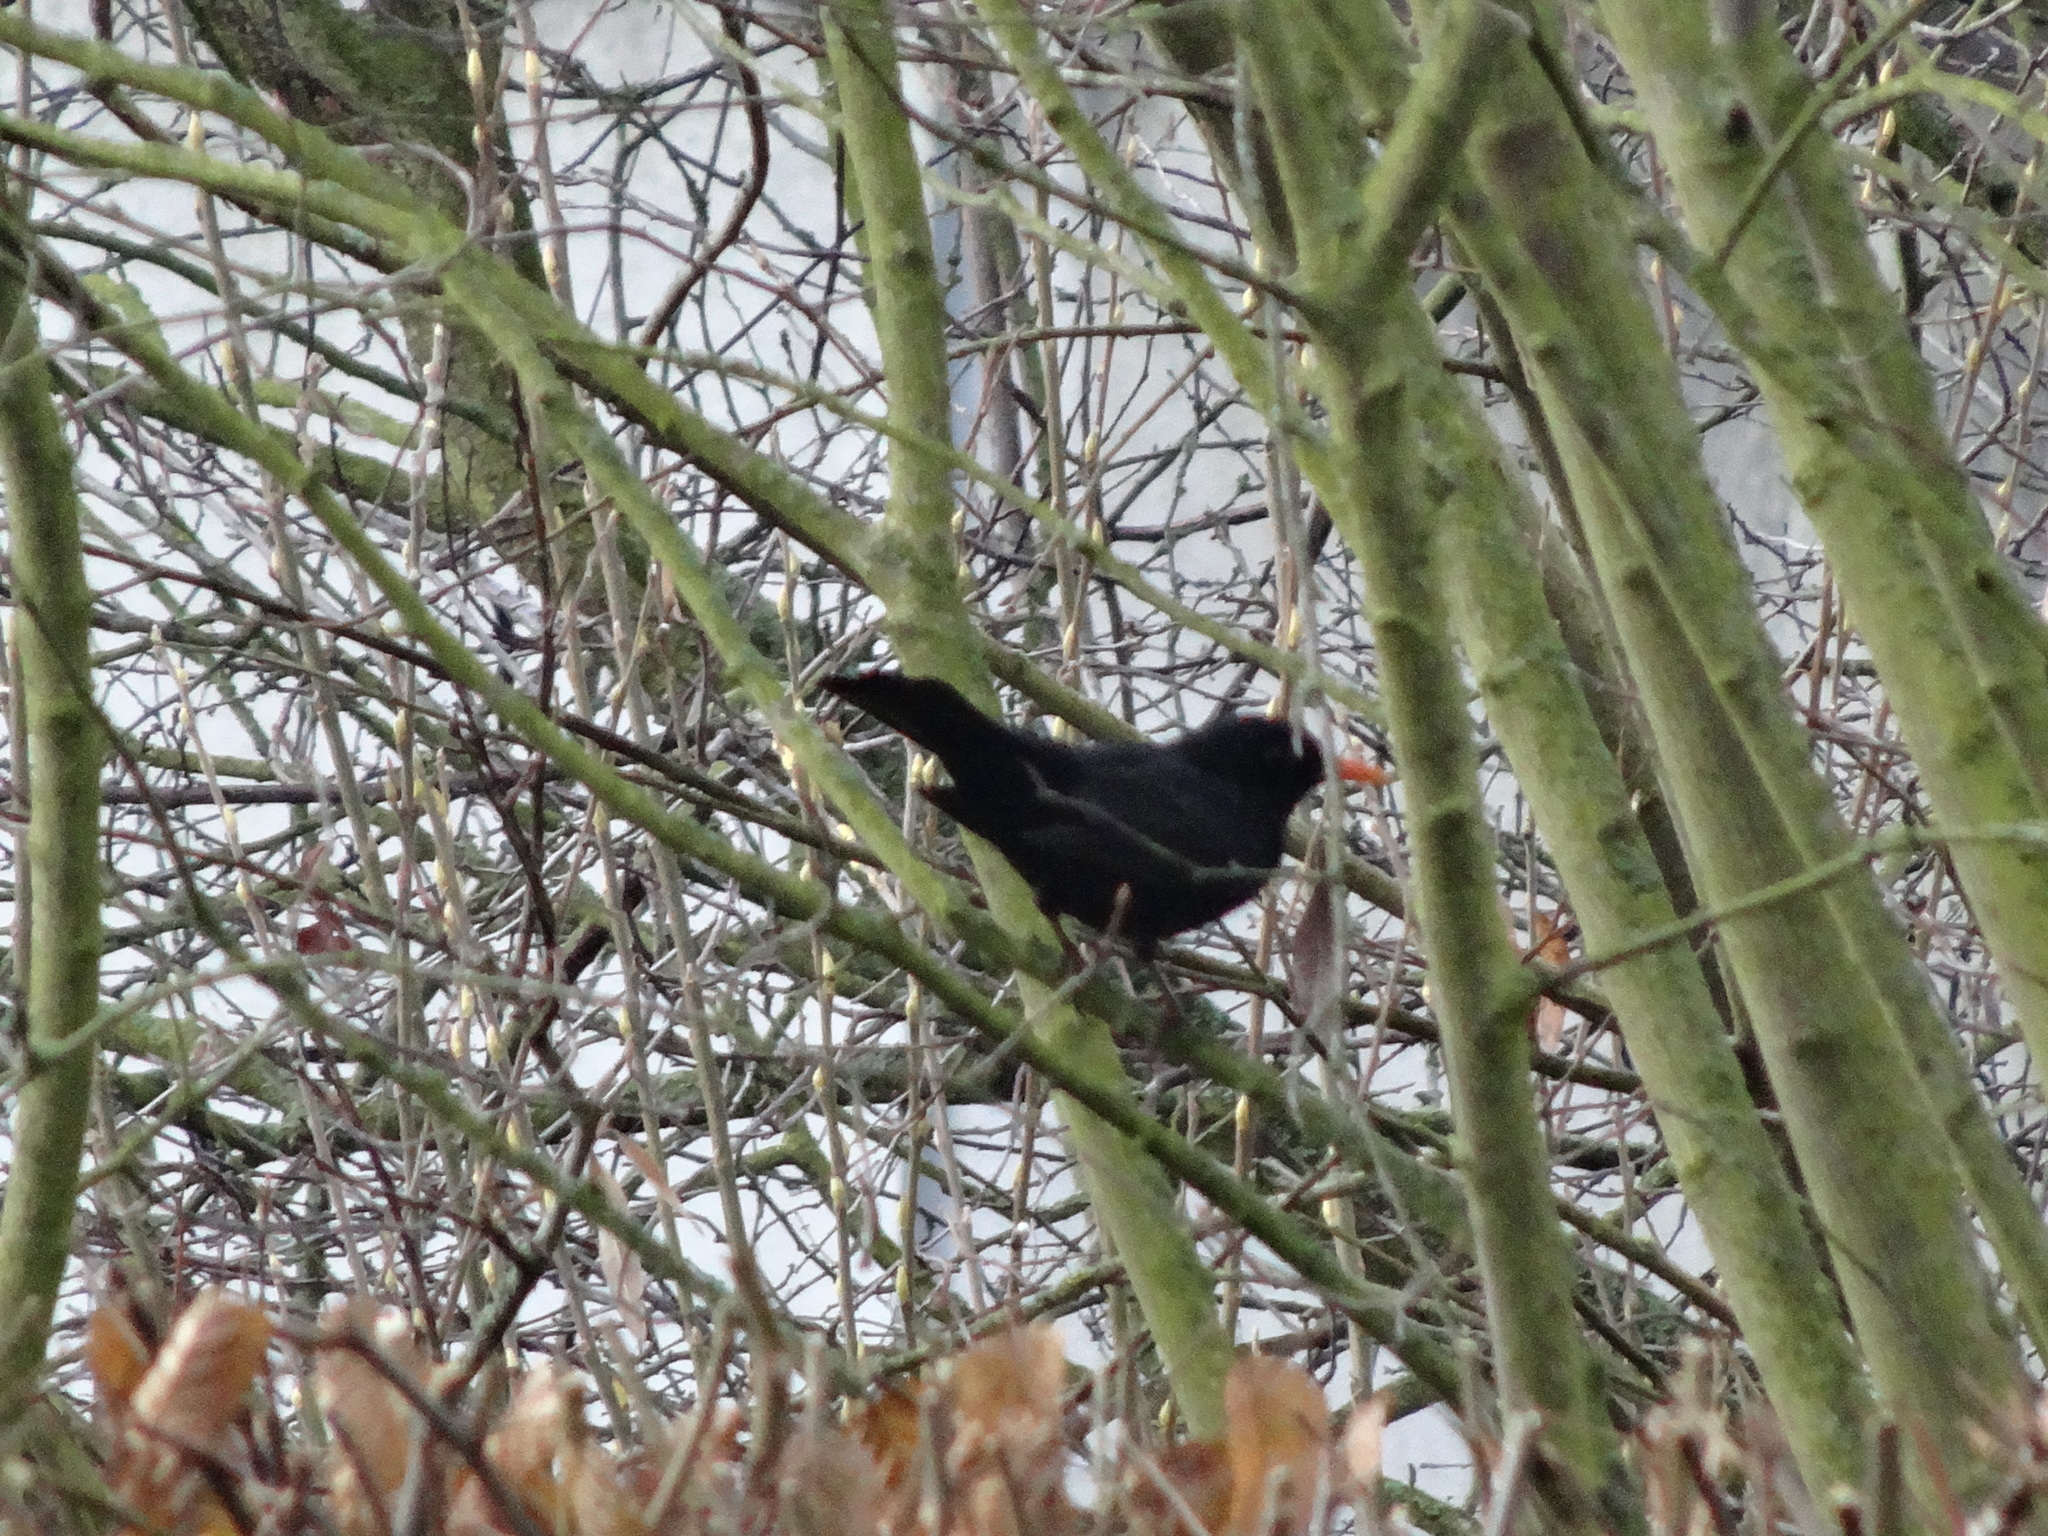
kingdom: Animalia
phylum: Chordata
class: Aves
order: Passeriformes
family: Turdidae
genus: Turdus
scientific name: Turdus merula
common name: Common blackbird
